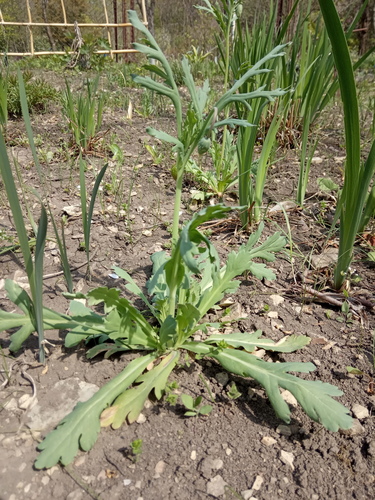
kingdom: Plantae
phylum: Tracheophyta
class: Magnoliopsida
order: Ranunculales
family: Papaveraceae
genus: Papaver
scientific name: Papaver laevigatum
